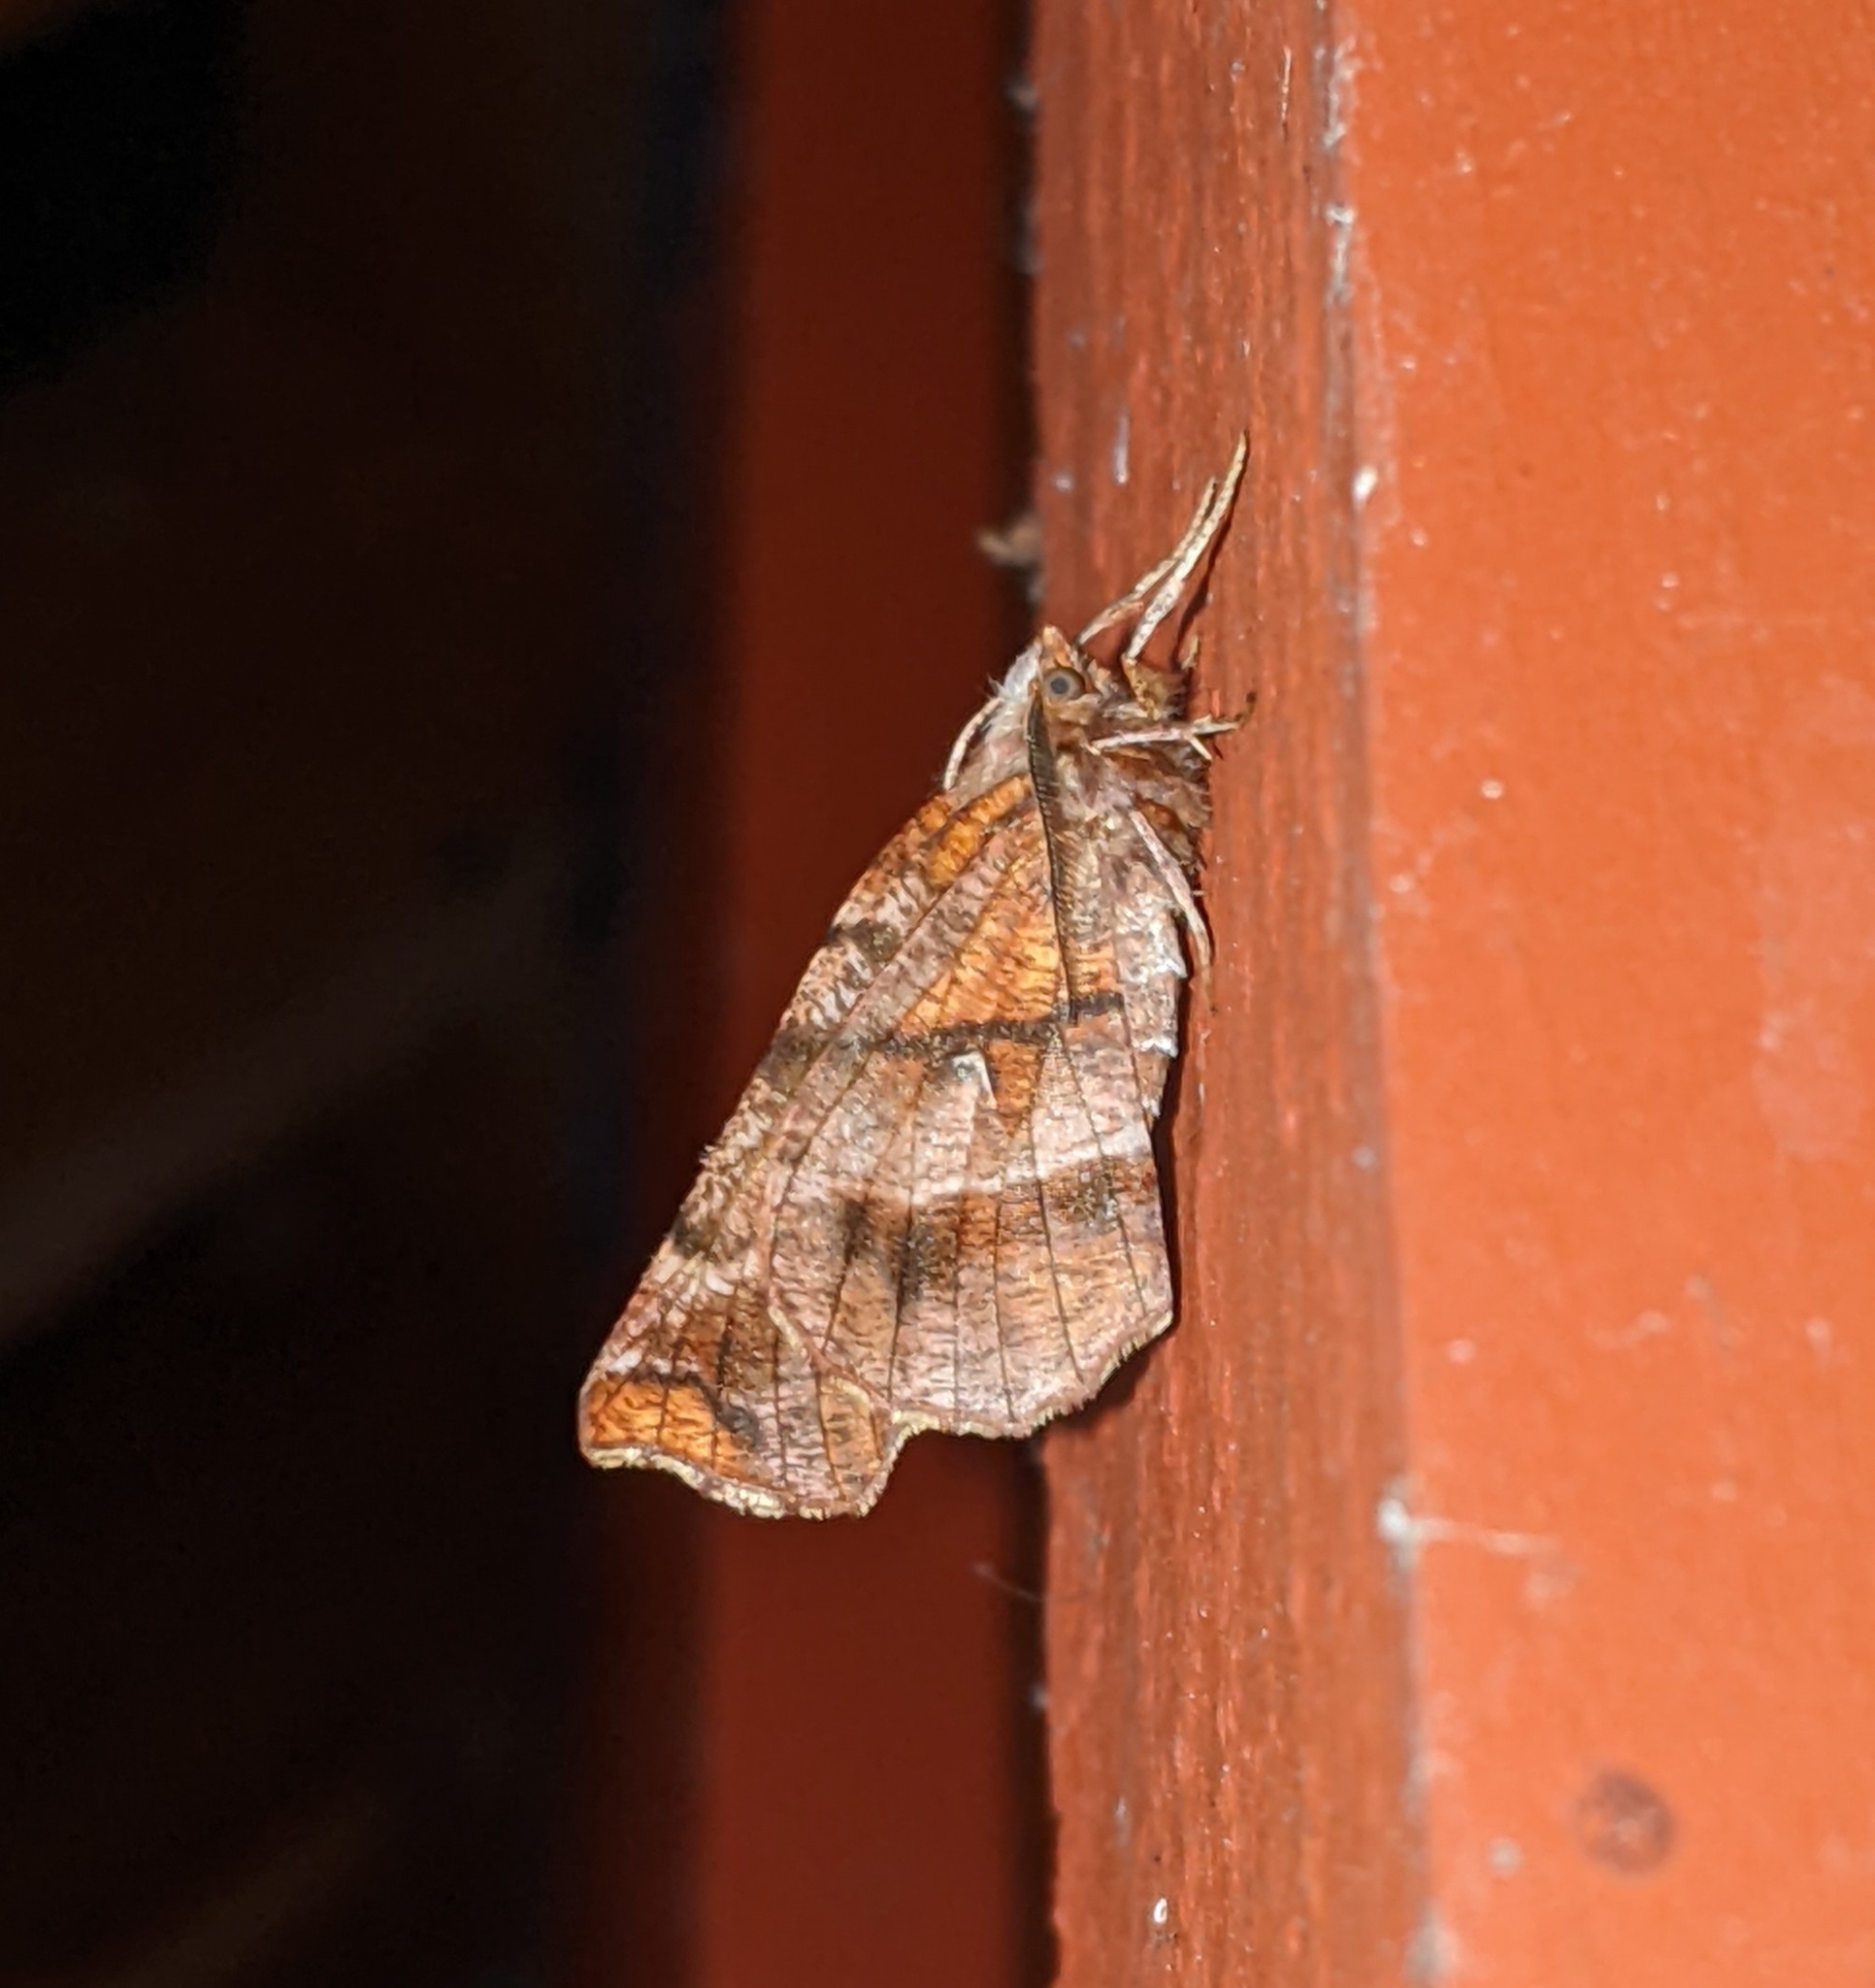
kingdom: Animalia
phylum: Arthropoda
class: Insecta
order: Lepidoptera
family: Geometridae
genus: Selenia
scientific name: Selenia alciphearia
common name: Brown-tipped thorn
